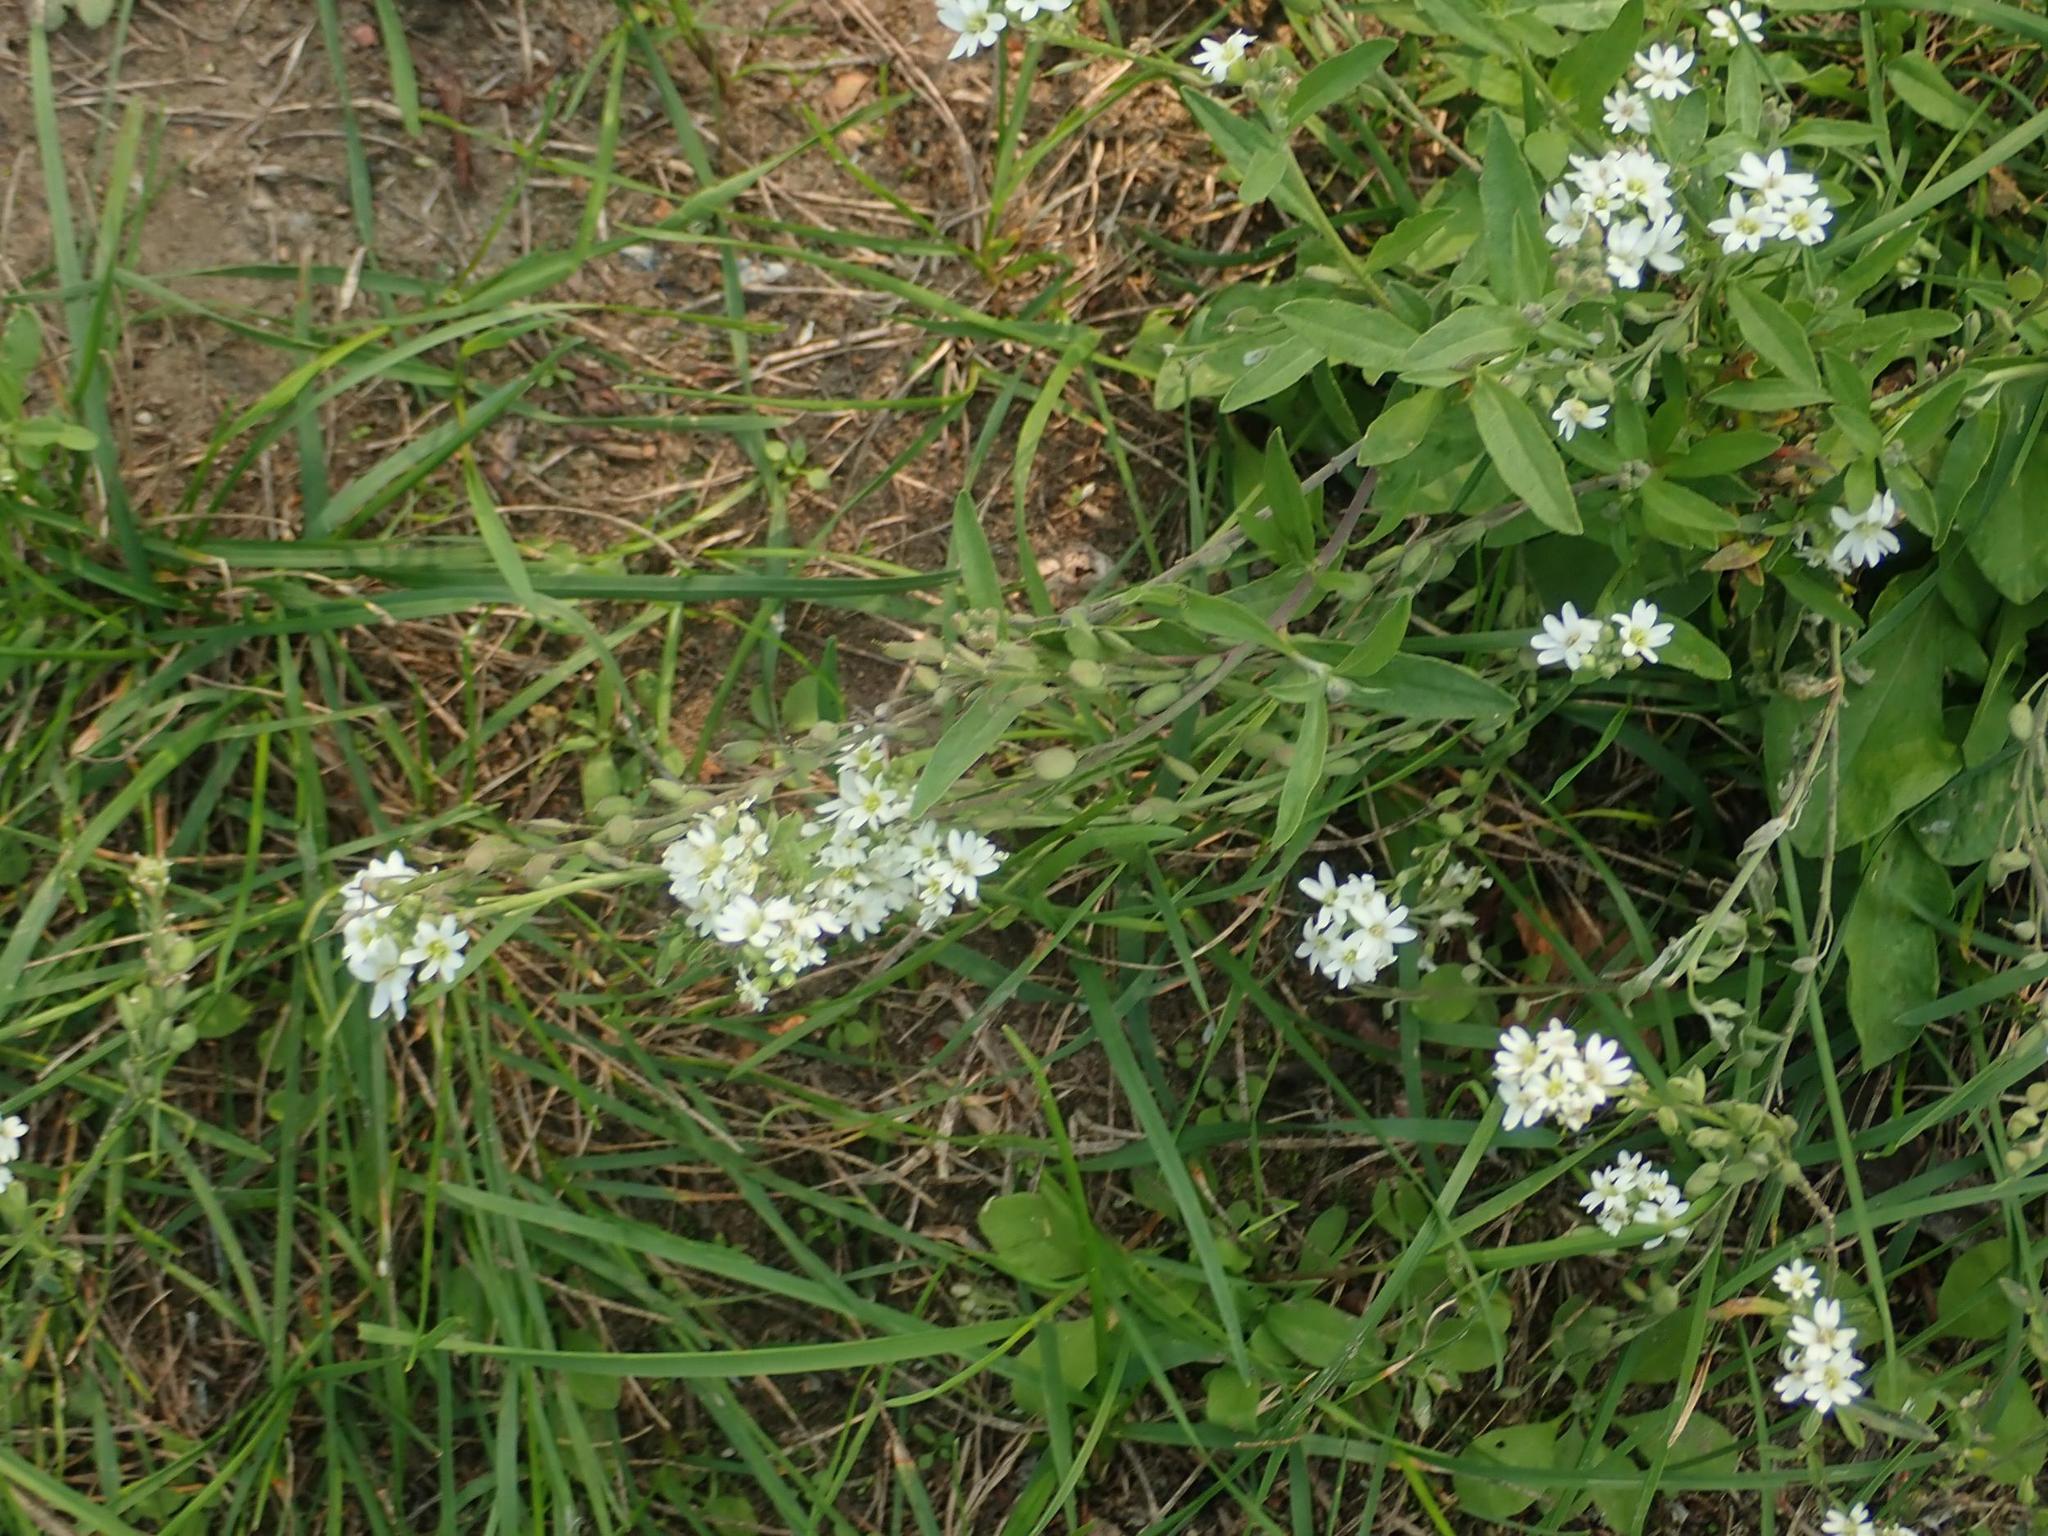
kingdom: Plantae
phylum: Tracheophyta
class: Magnoliopsida
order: Brassicales
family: Brassicaceae
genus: Berteroa
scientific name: Berteroa incana
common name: Hoary alison
